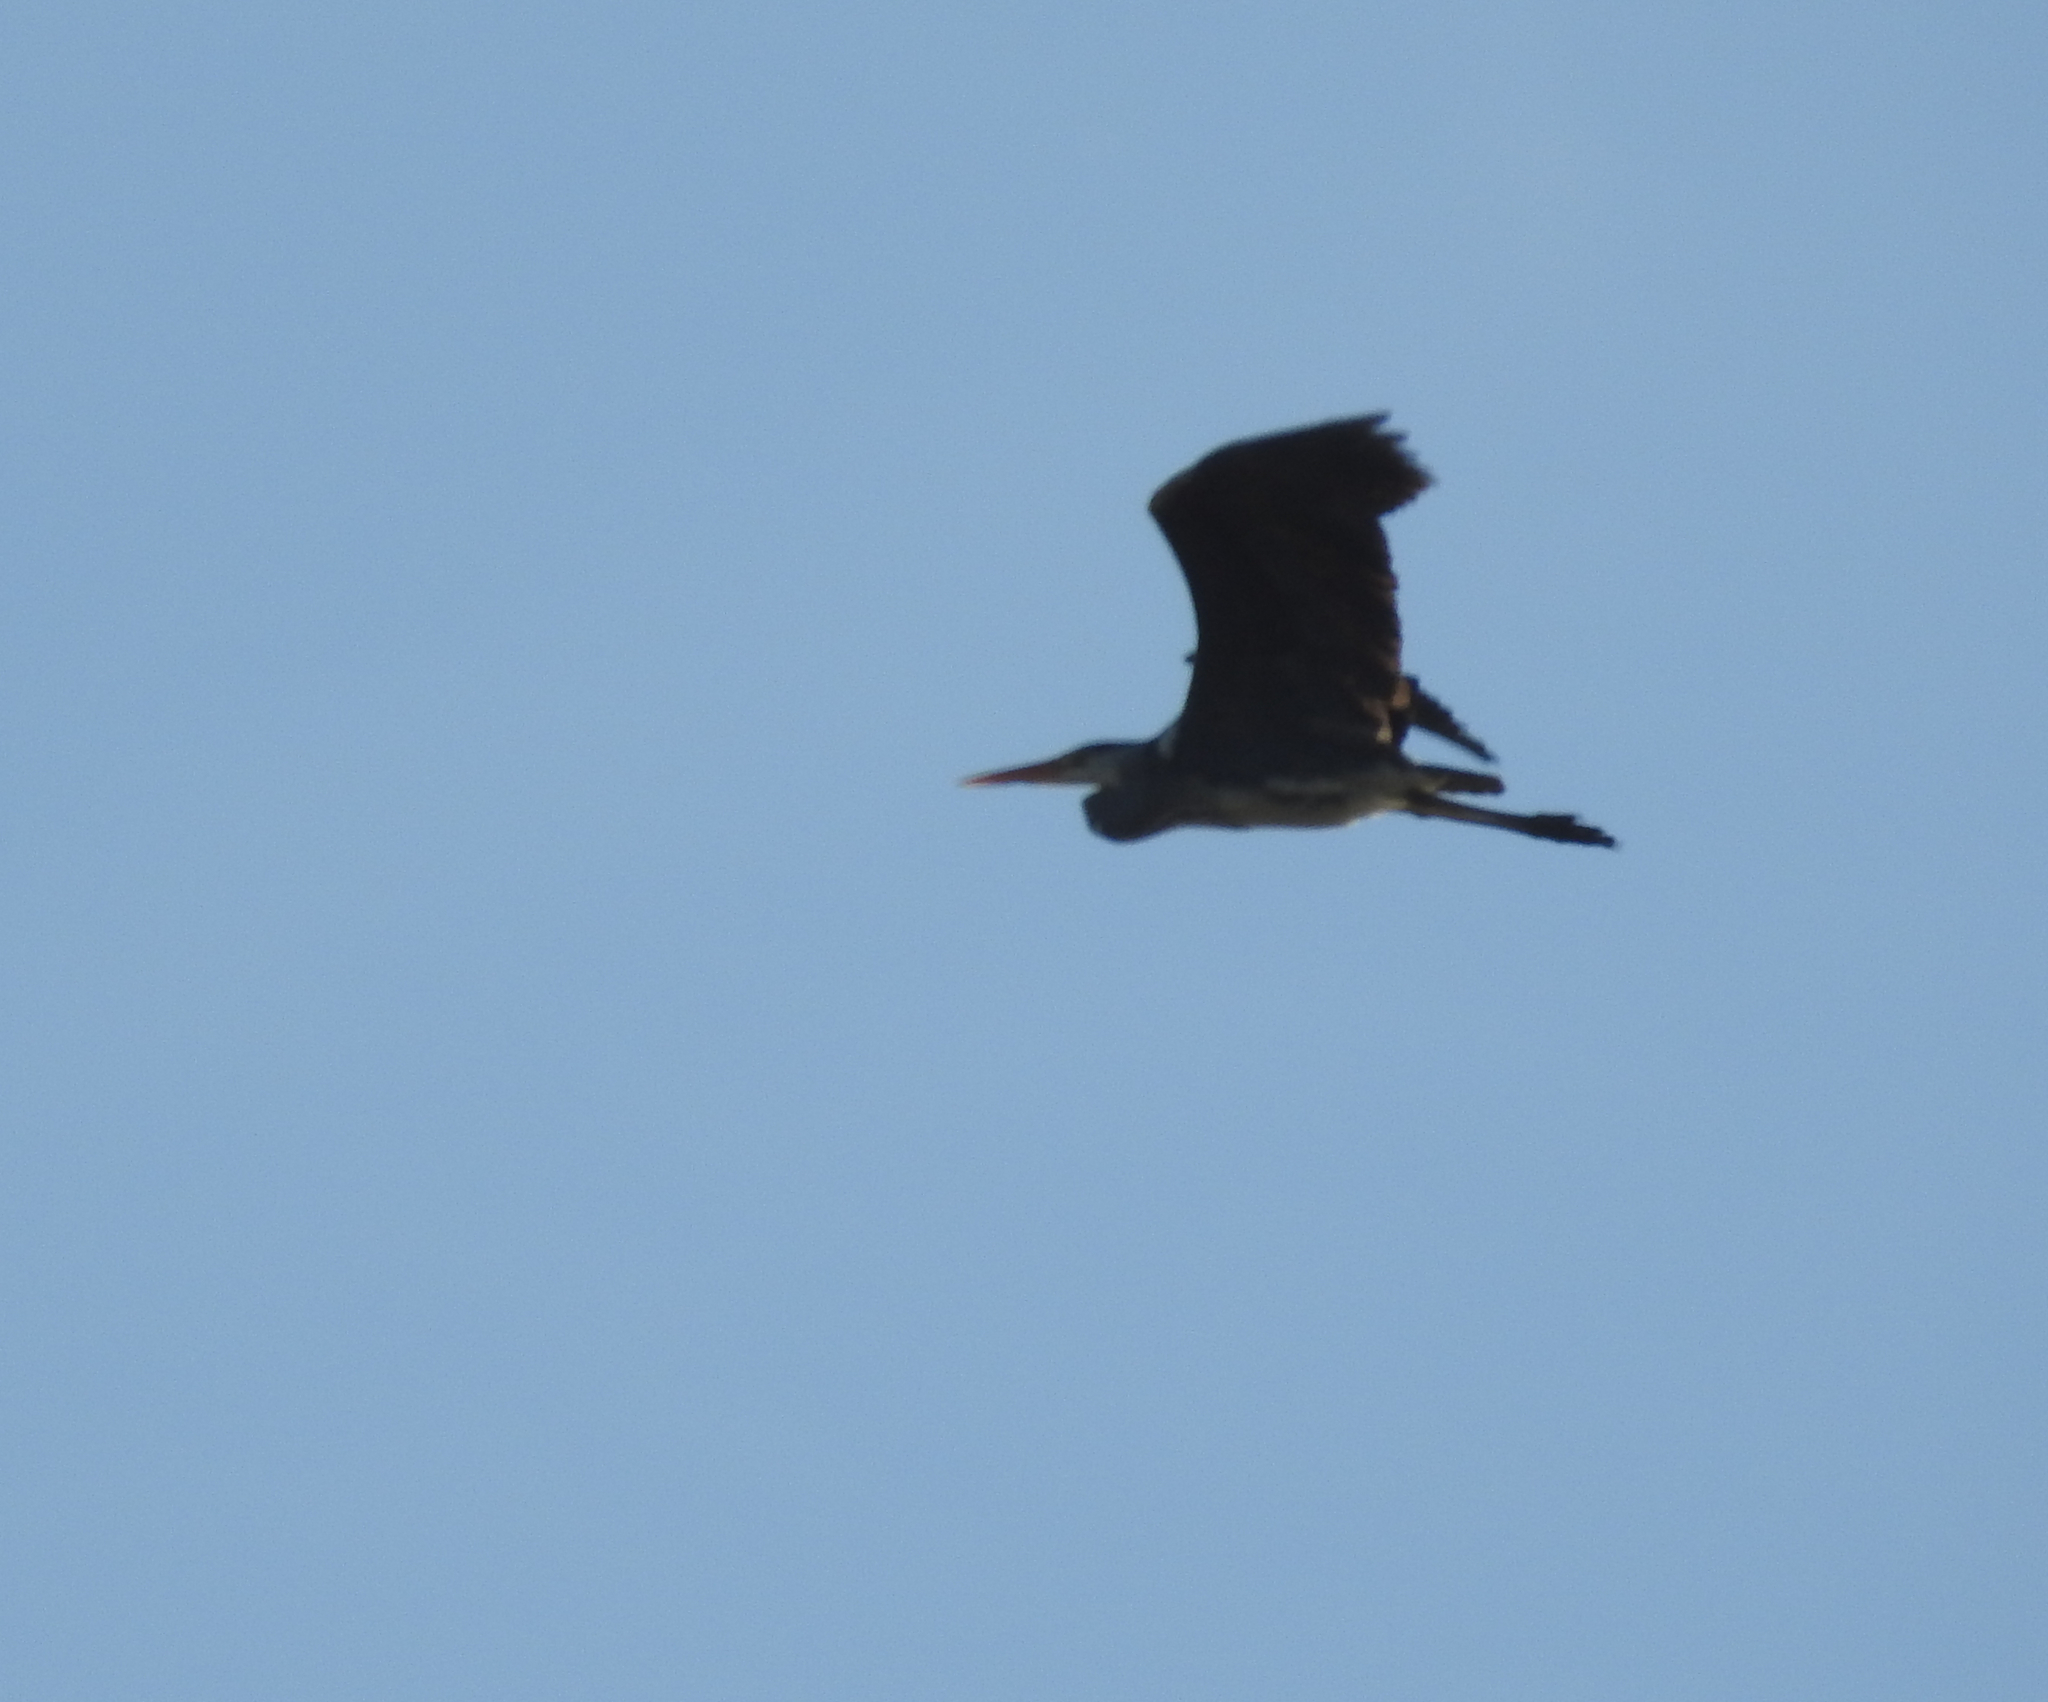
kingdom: Animalia
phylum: Chordata
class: Aves
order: Pelecaniformes
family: Ardeidae
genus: Ardea
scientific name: Ardea cinerea
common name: Grey heron
